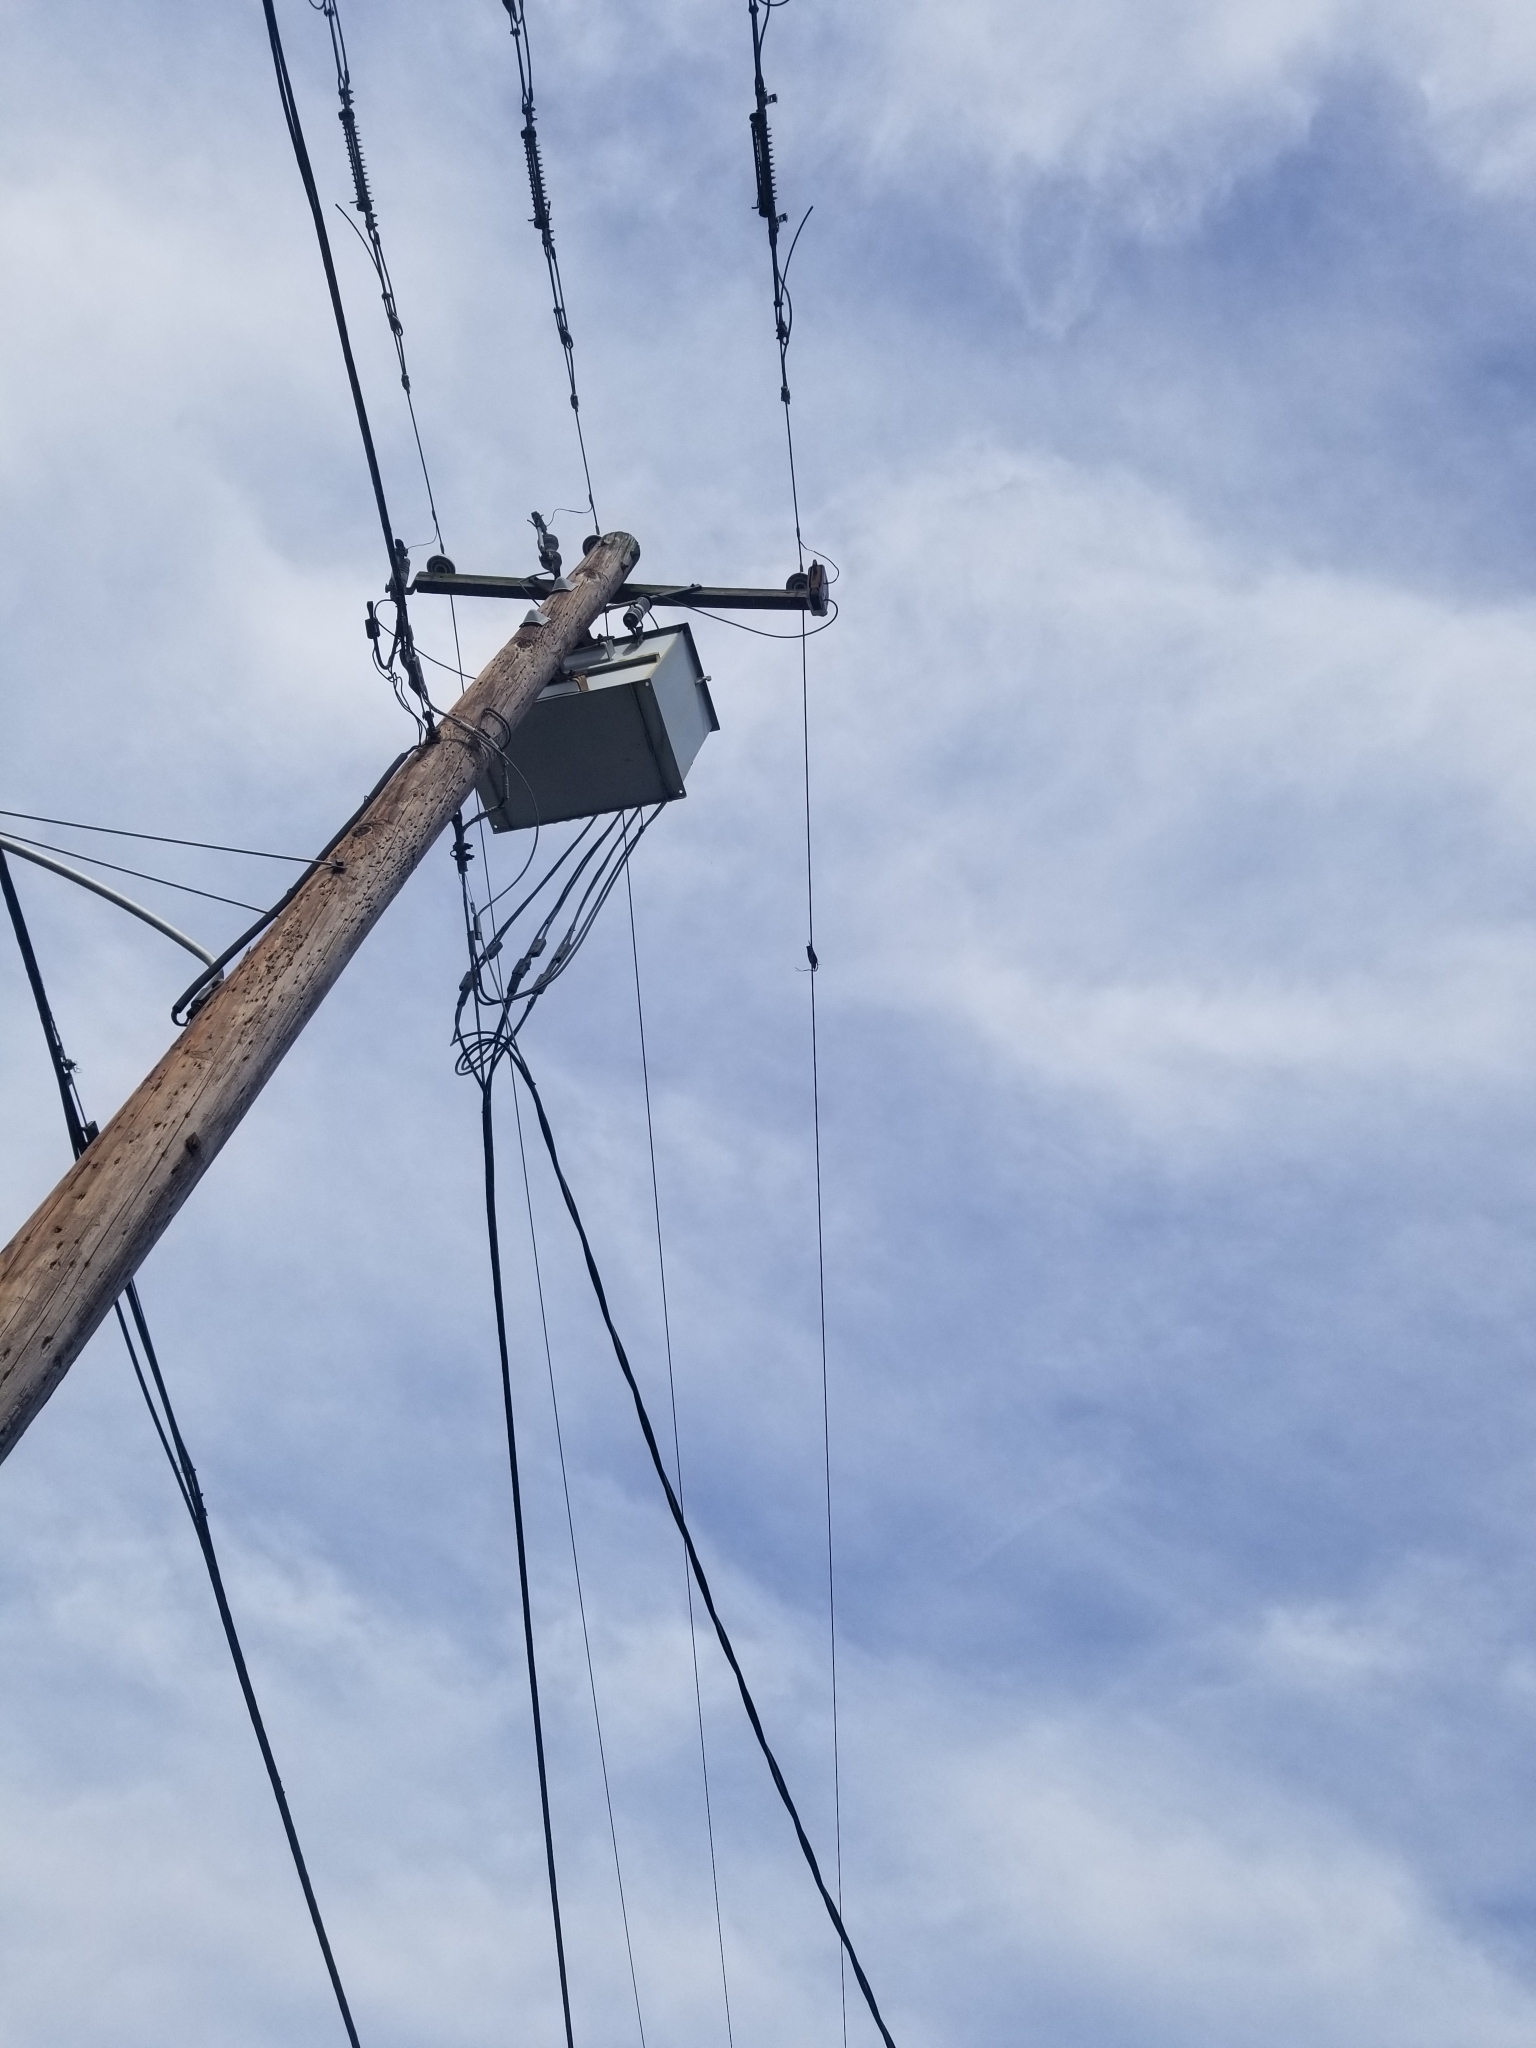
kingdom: Animalia
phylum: Chordata
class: Aves
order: Passeriformes
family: Sturnidae
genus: Sturnus
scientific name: Sturnus vulgaris
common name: Common starling
